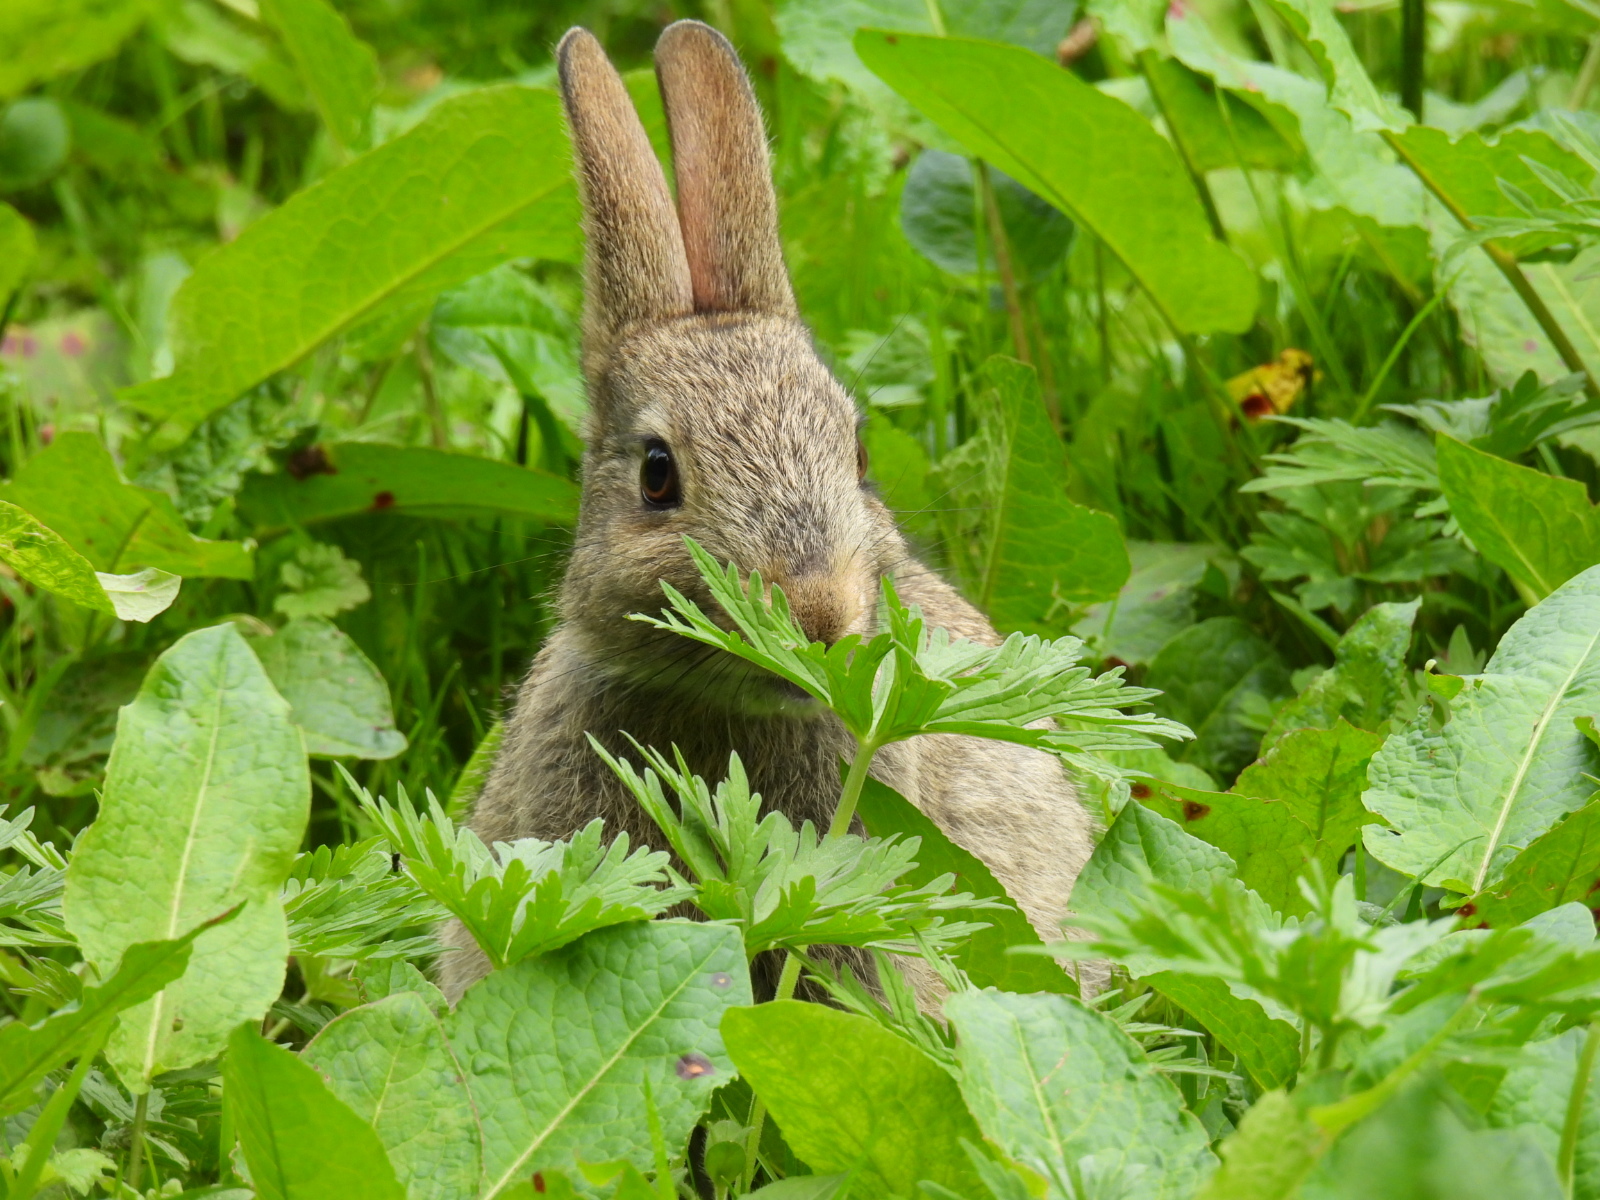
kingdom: Animalia
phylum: Chordata
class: Mammalia
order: Lagomorpha
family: Leporidae
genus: Oryctolagus
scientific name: Oryctolagus cuniculus
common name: European rabbit
